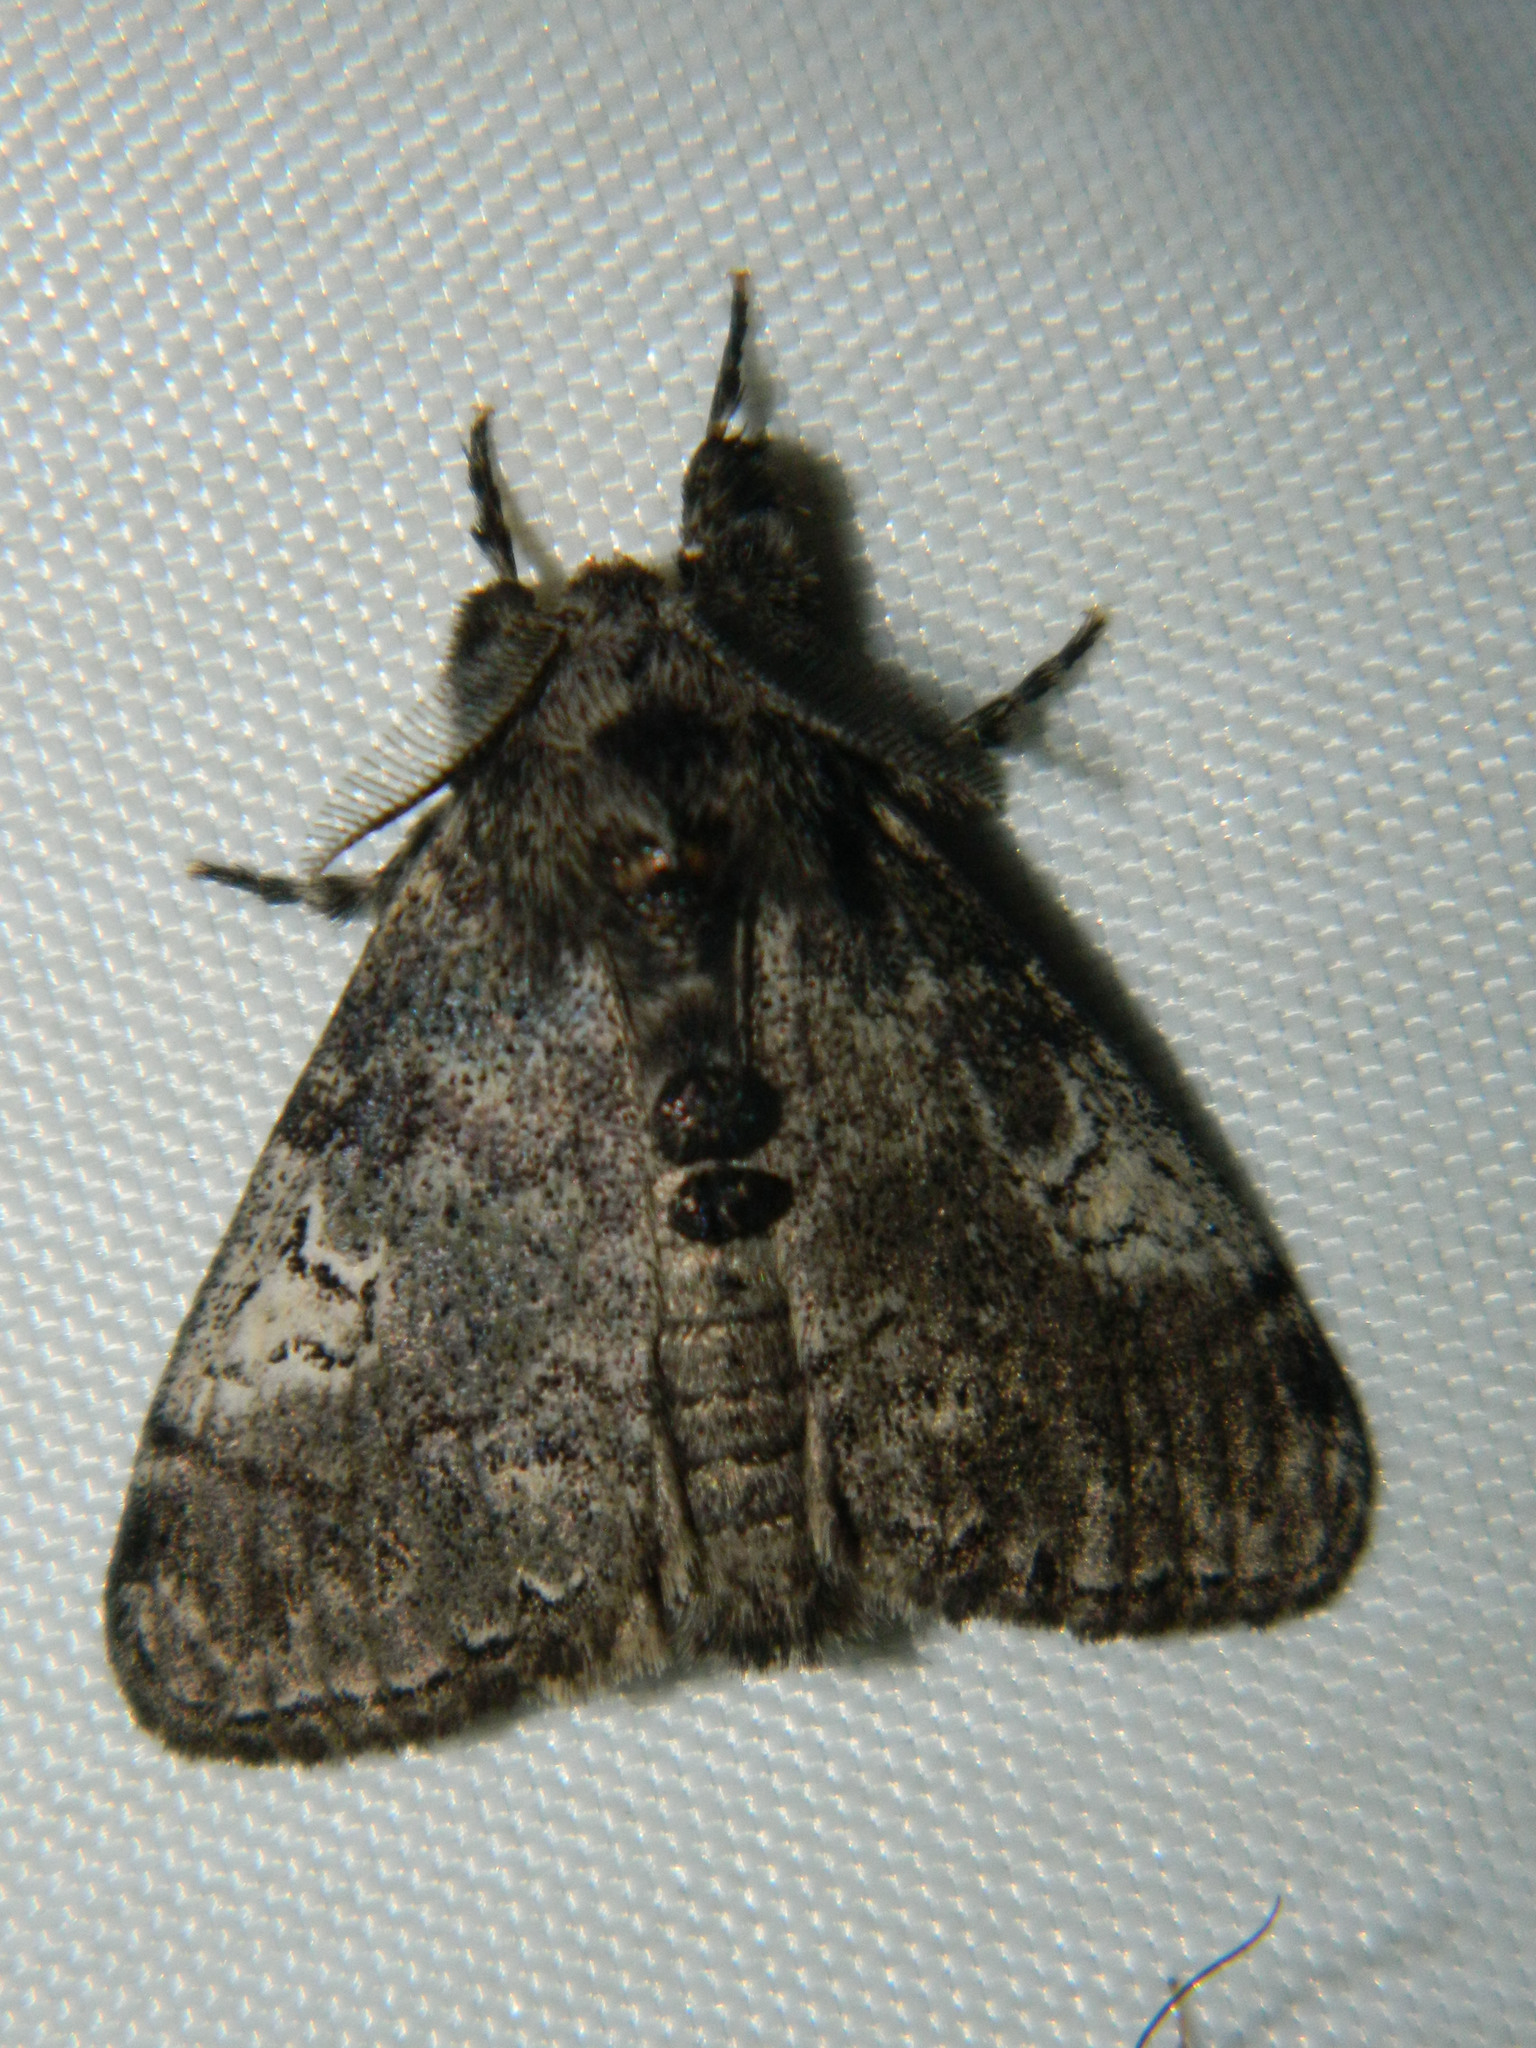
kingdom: Animalia
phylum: Arthropoda
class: Insecta
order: Lepidoptera
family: Erebidae
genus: Dasychira
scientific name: Dasychira vagans
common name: Variable tussock moth
